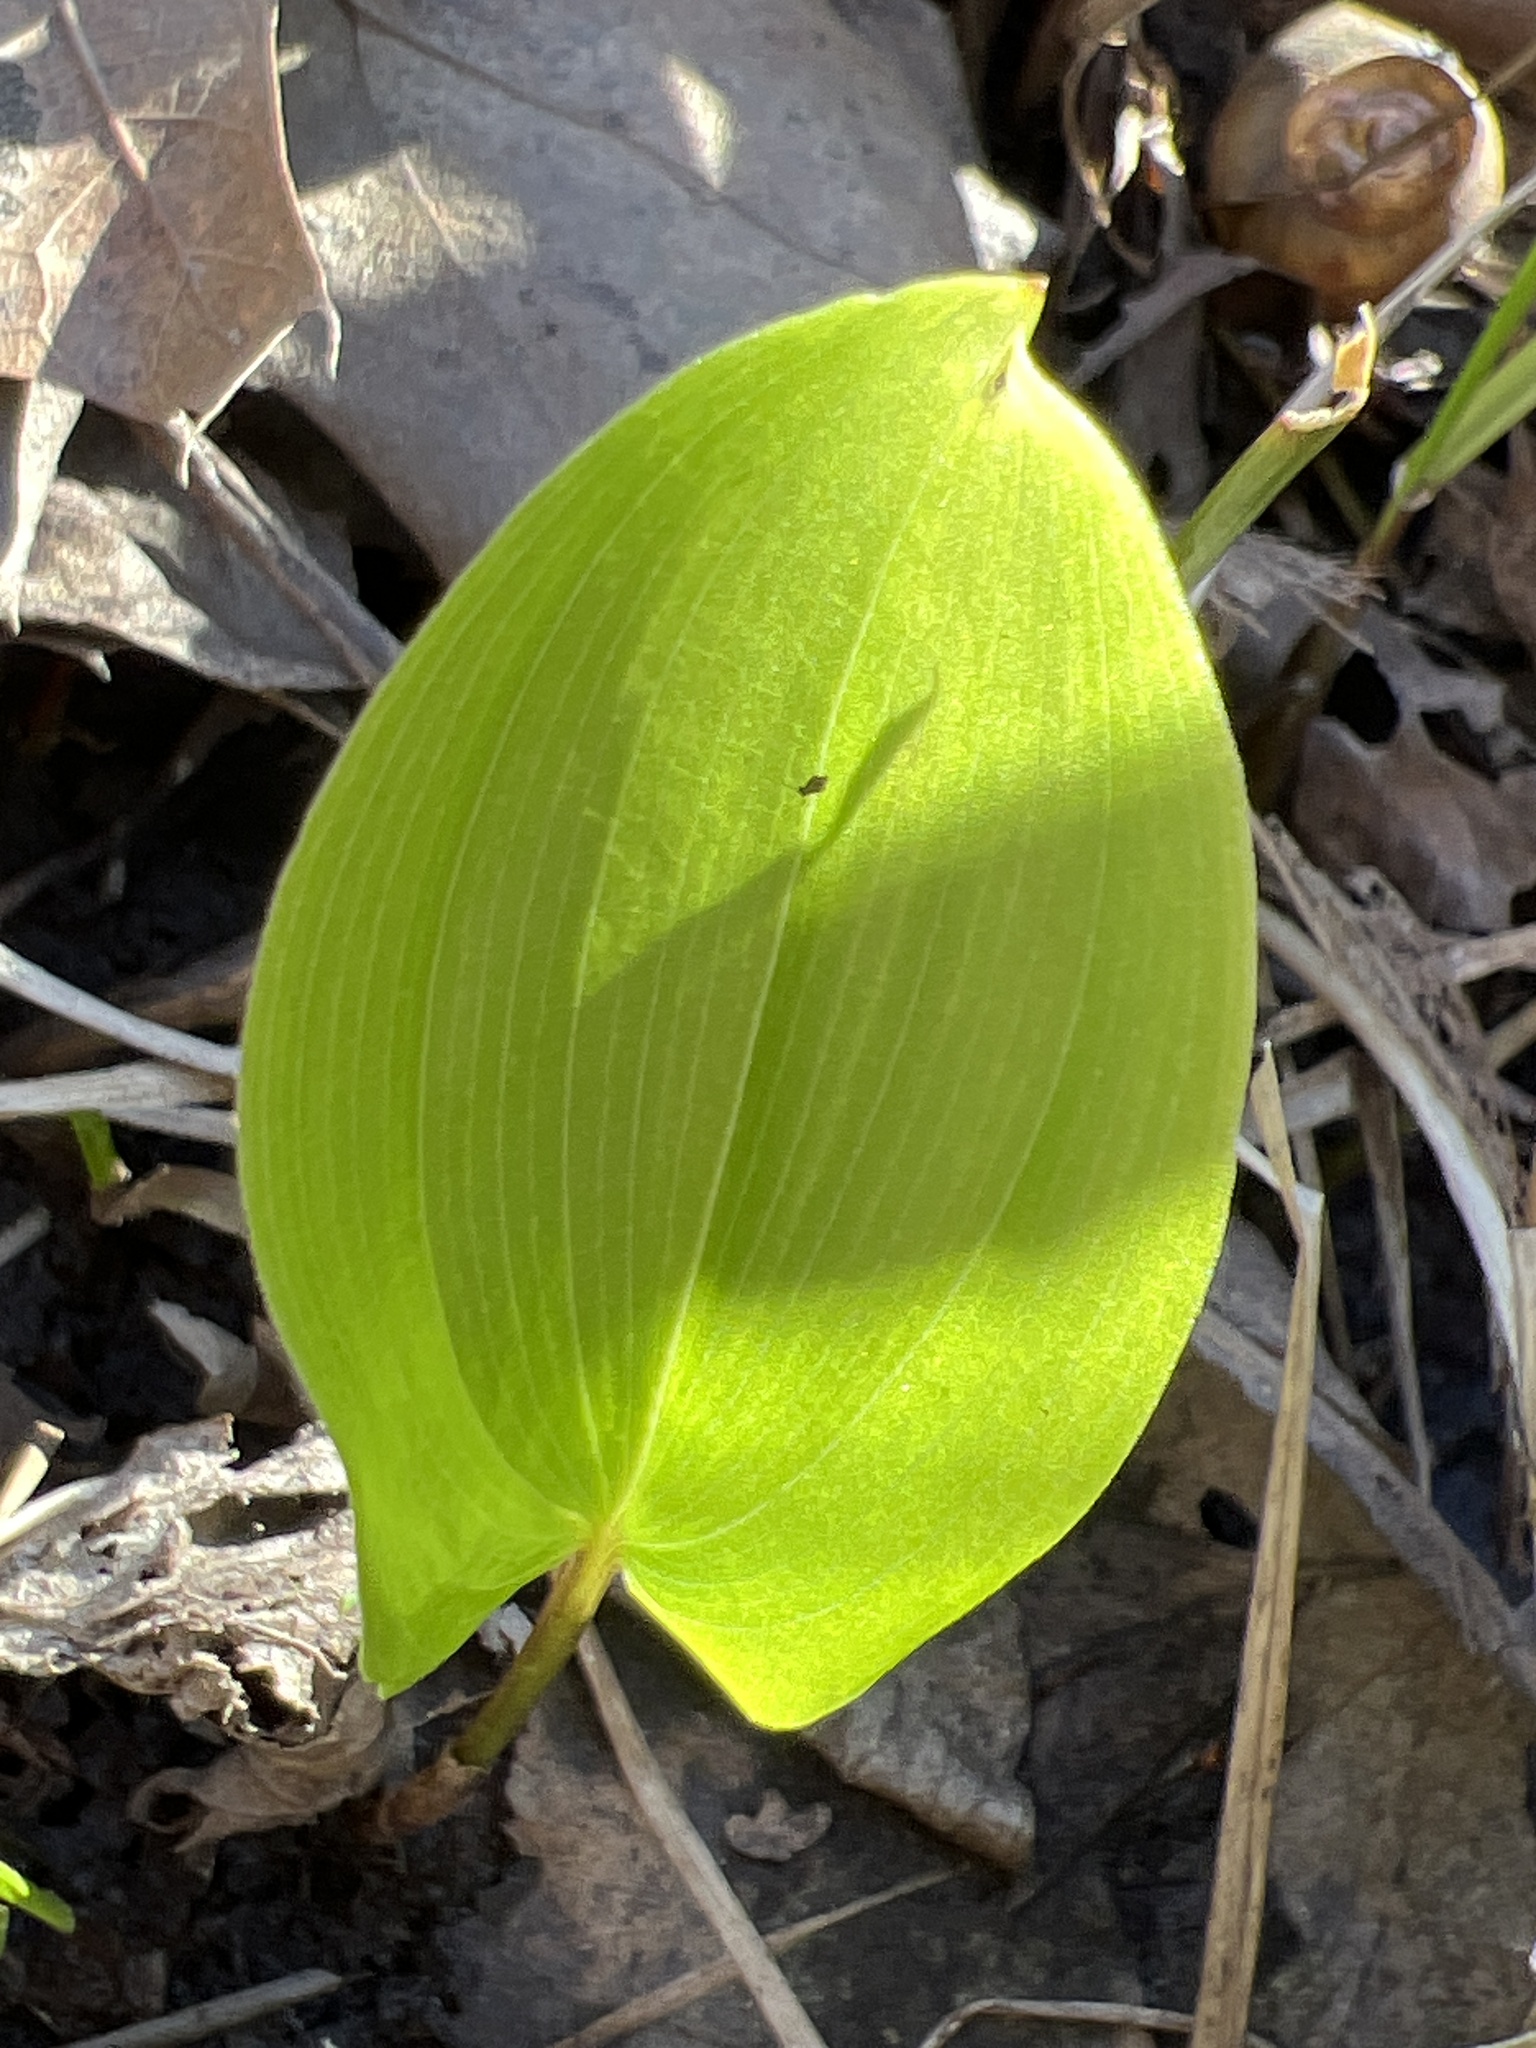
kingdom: Plantae
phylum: Tracheophyta
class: Liliopsida
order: Asparagales
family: Asparagaceae
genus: Maianthemum
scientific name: Maianthemum canadense
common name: False lily-of-the-valley
